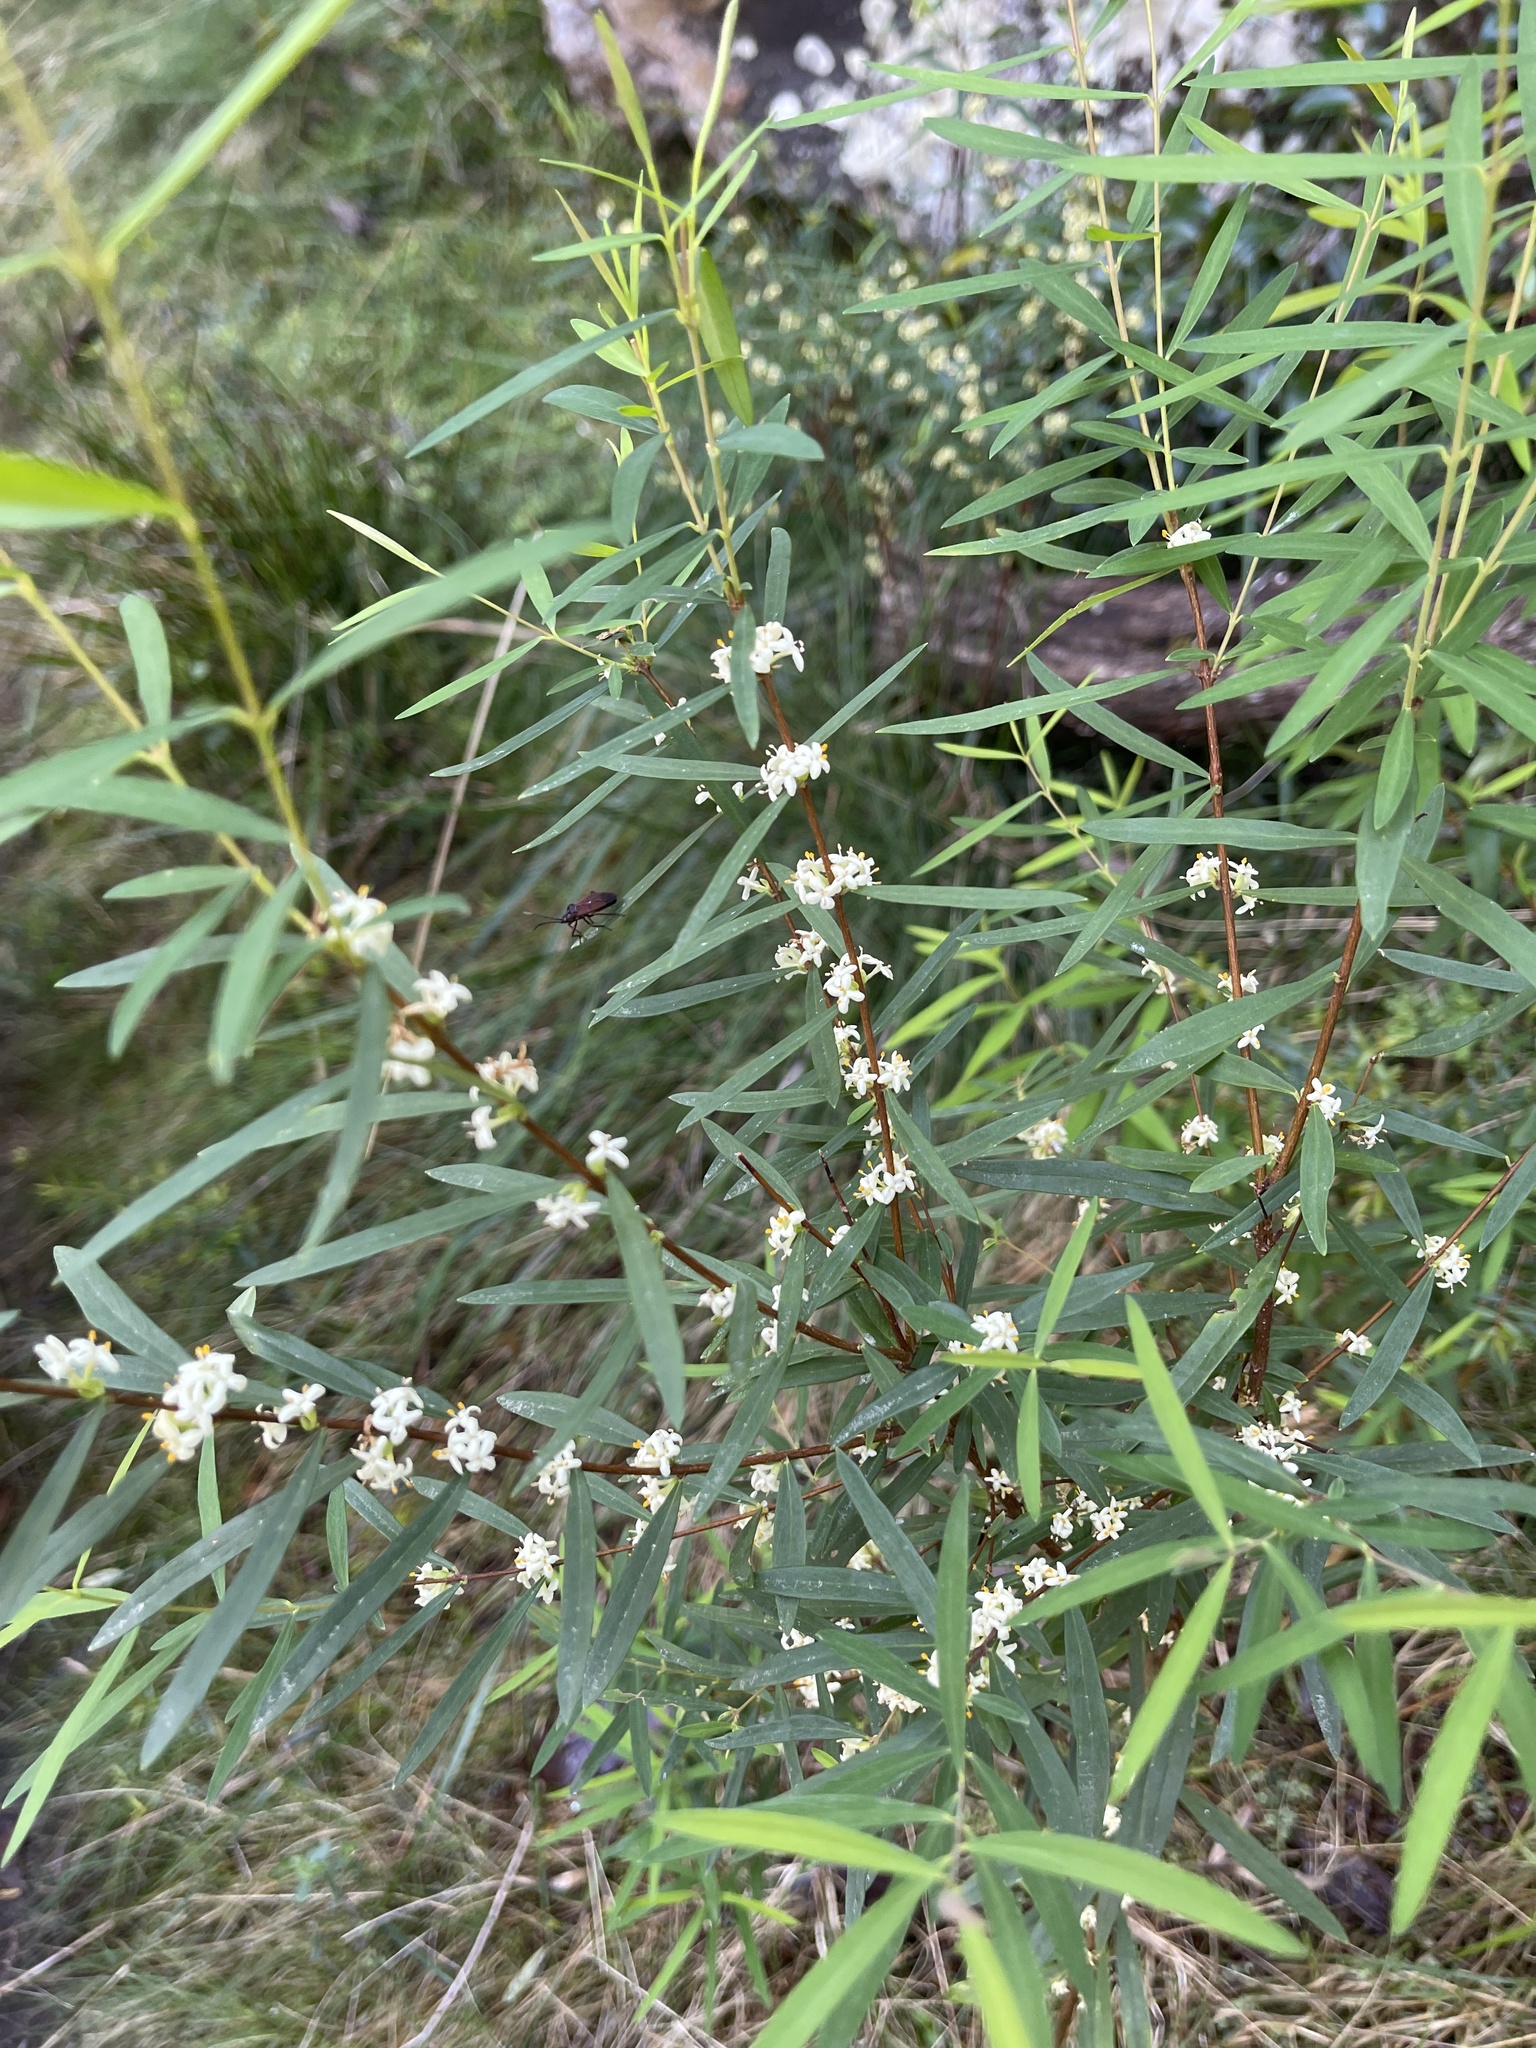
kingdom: Plantae
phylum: Tracheophyta
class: Magnoliopsida
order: Malvales
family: Thymelaeaceae
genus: Pimelea
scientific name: Pimelea axiflora
